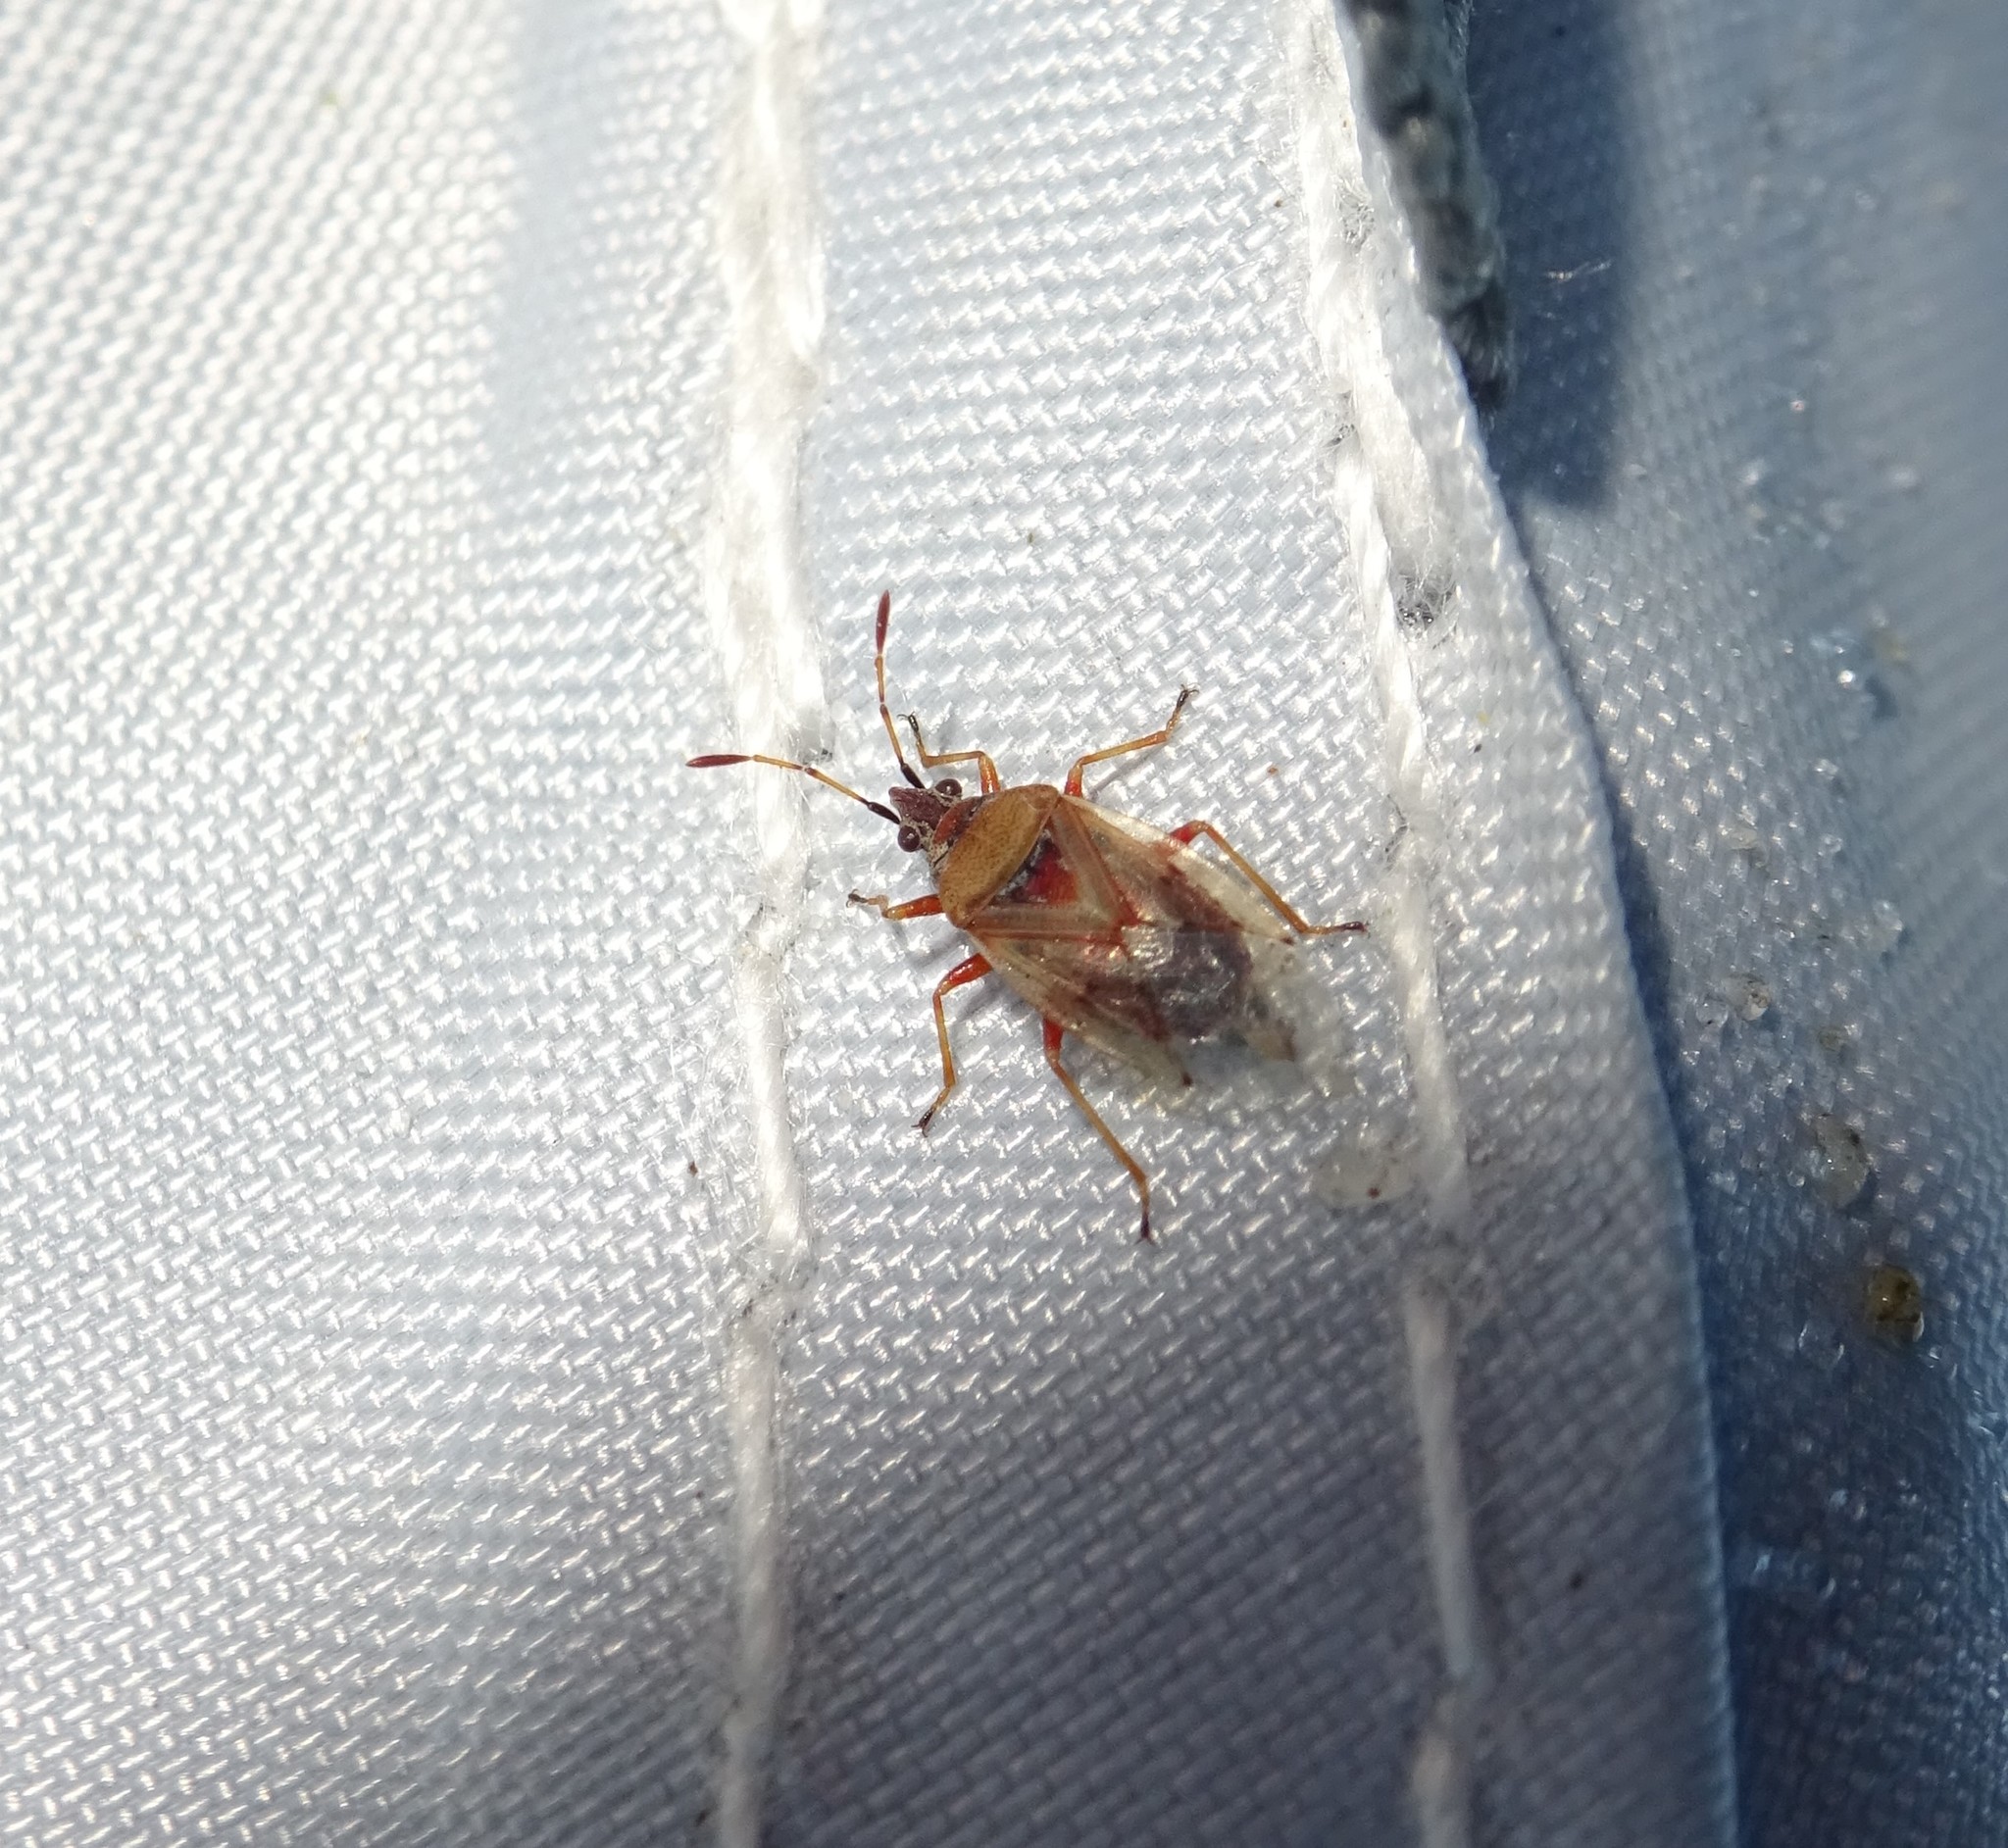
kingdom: Animalia
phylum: Arthropoda
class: Insecta
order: Hemiptera
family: Lygaeidae
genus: Kleidocerys
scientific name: Kleidocerys resedae
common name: Birch catkin bug
